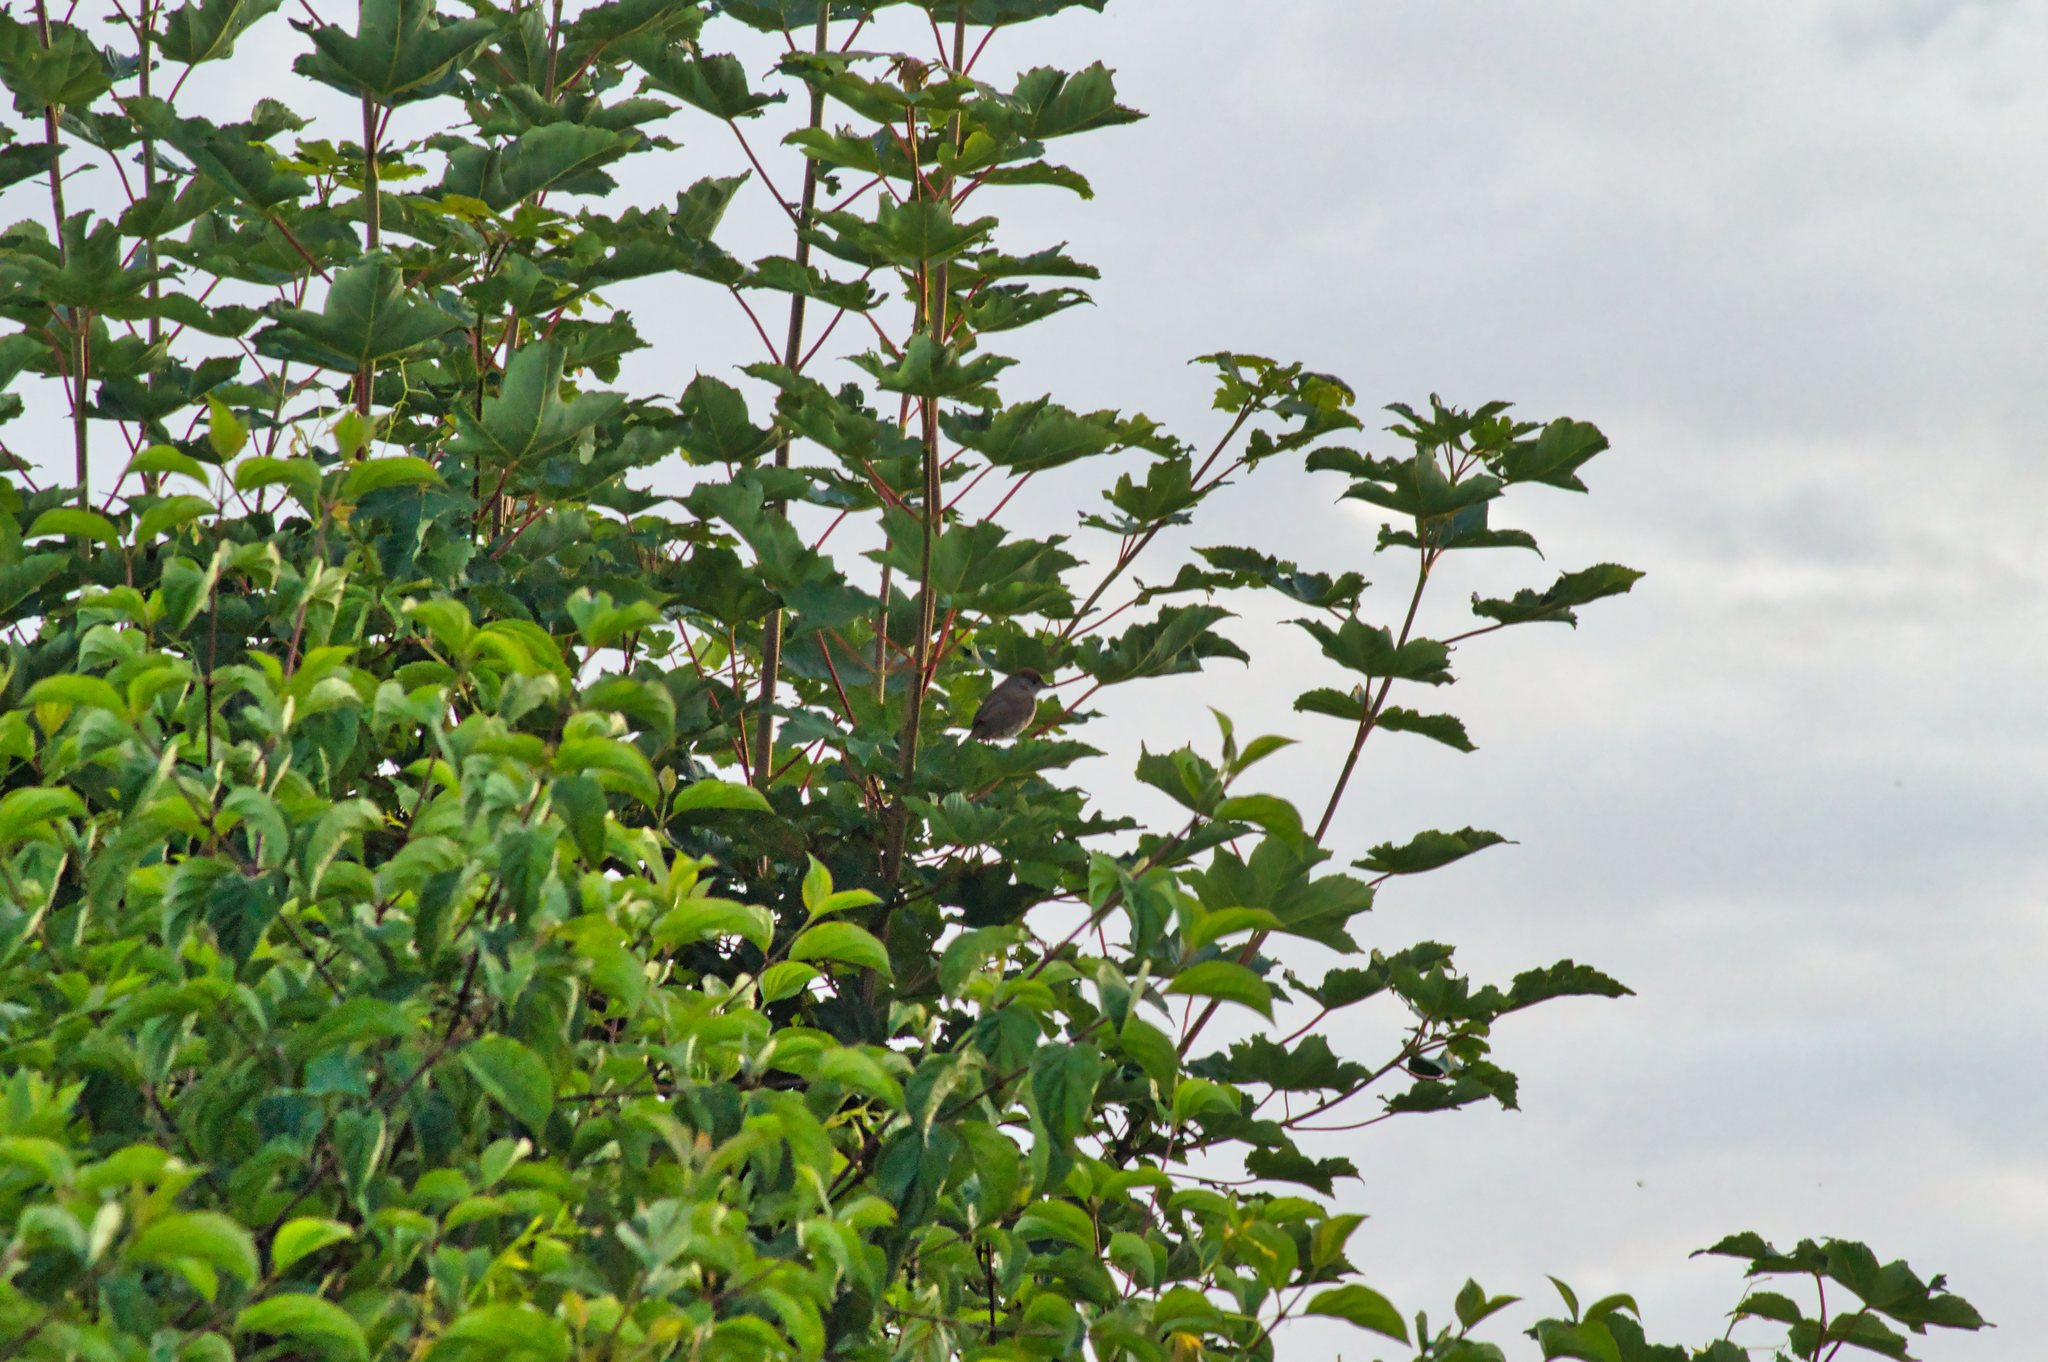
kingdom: Animalia
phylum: Chordata
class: Aves
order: Passeriformes
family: Sylviidae
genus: Sylvia
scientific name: Sylvia atricapilla
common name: Eurasian blackcap
